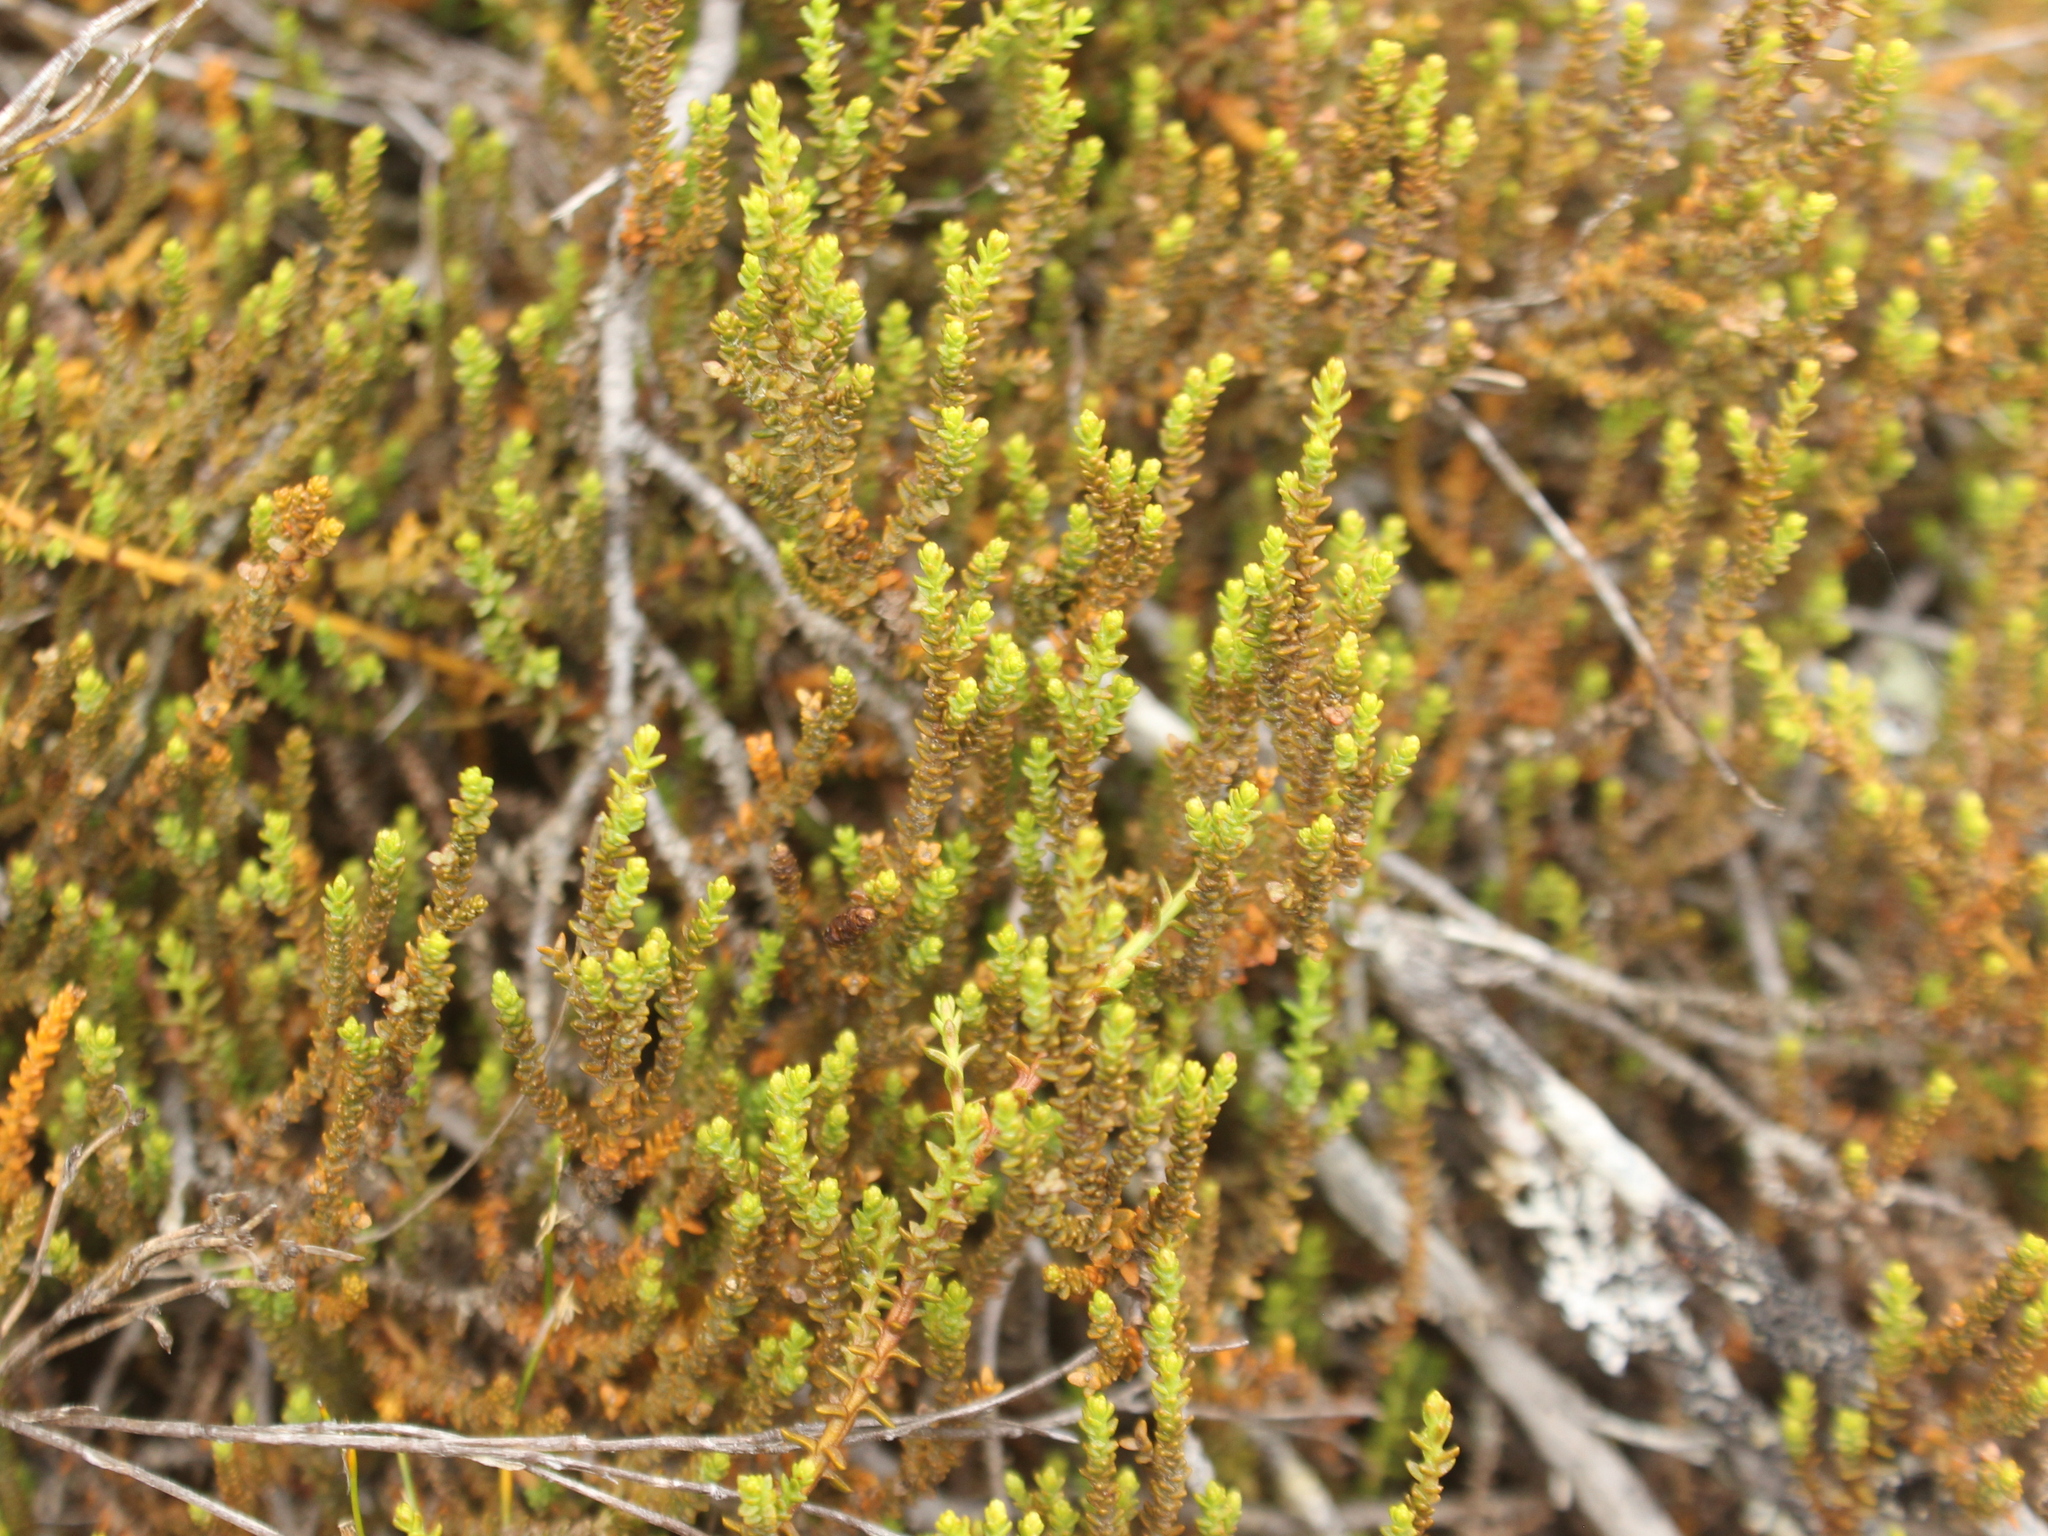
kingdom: Plantae
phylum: Tracheophyta
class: Pinopsida
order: Pinales
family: Podocarpaceae
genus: Lepidothamnus
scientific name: Lepidothamnus laxifolius
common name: Pygmy pine
